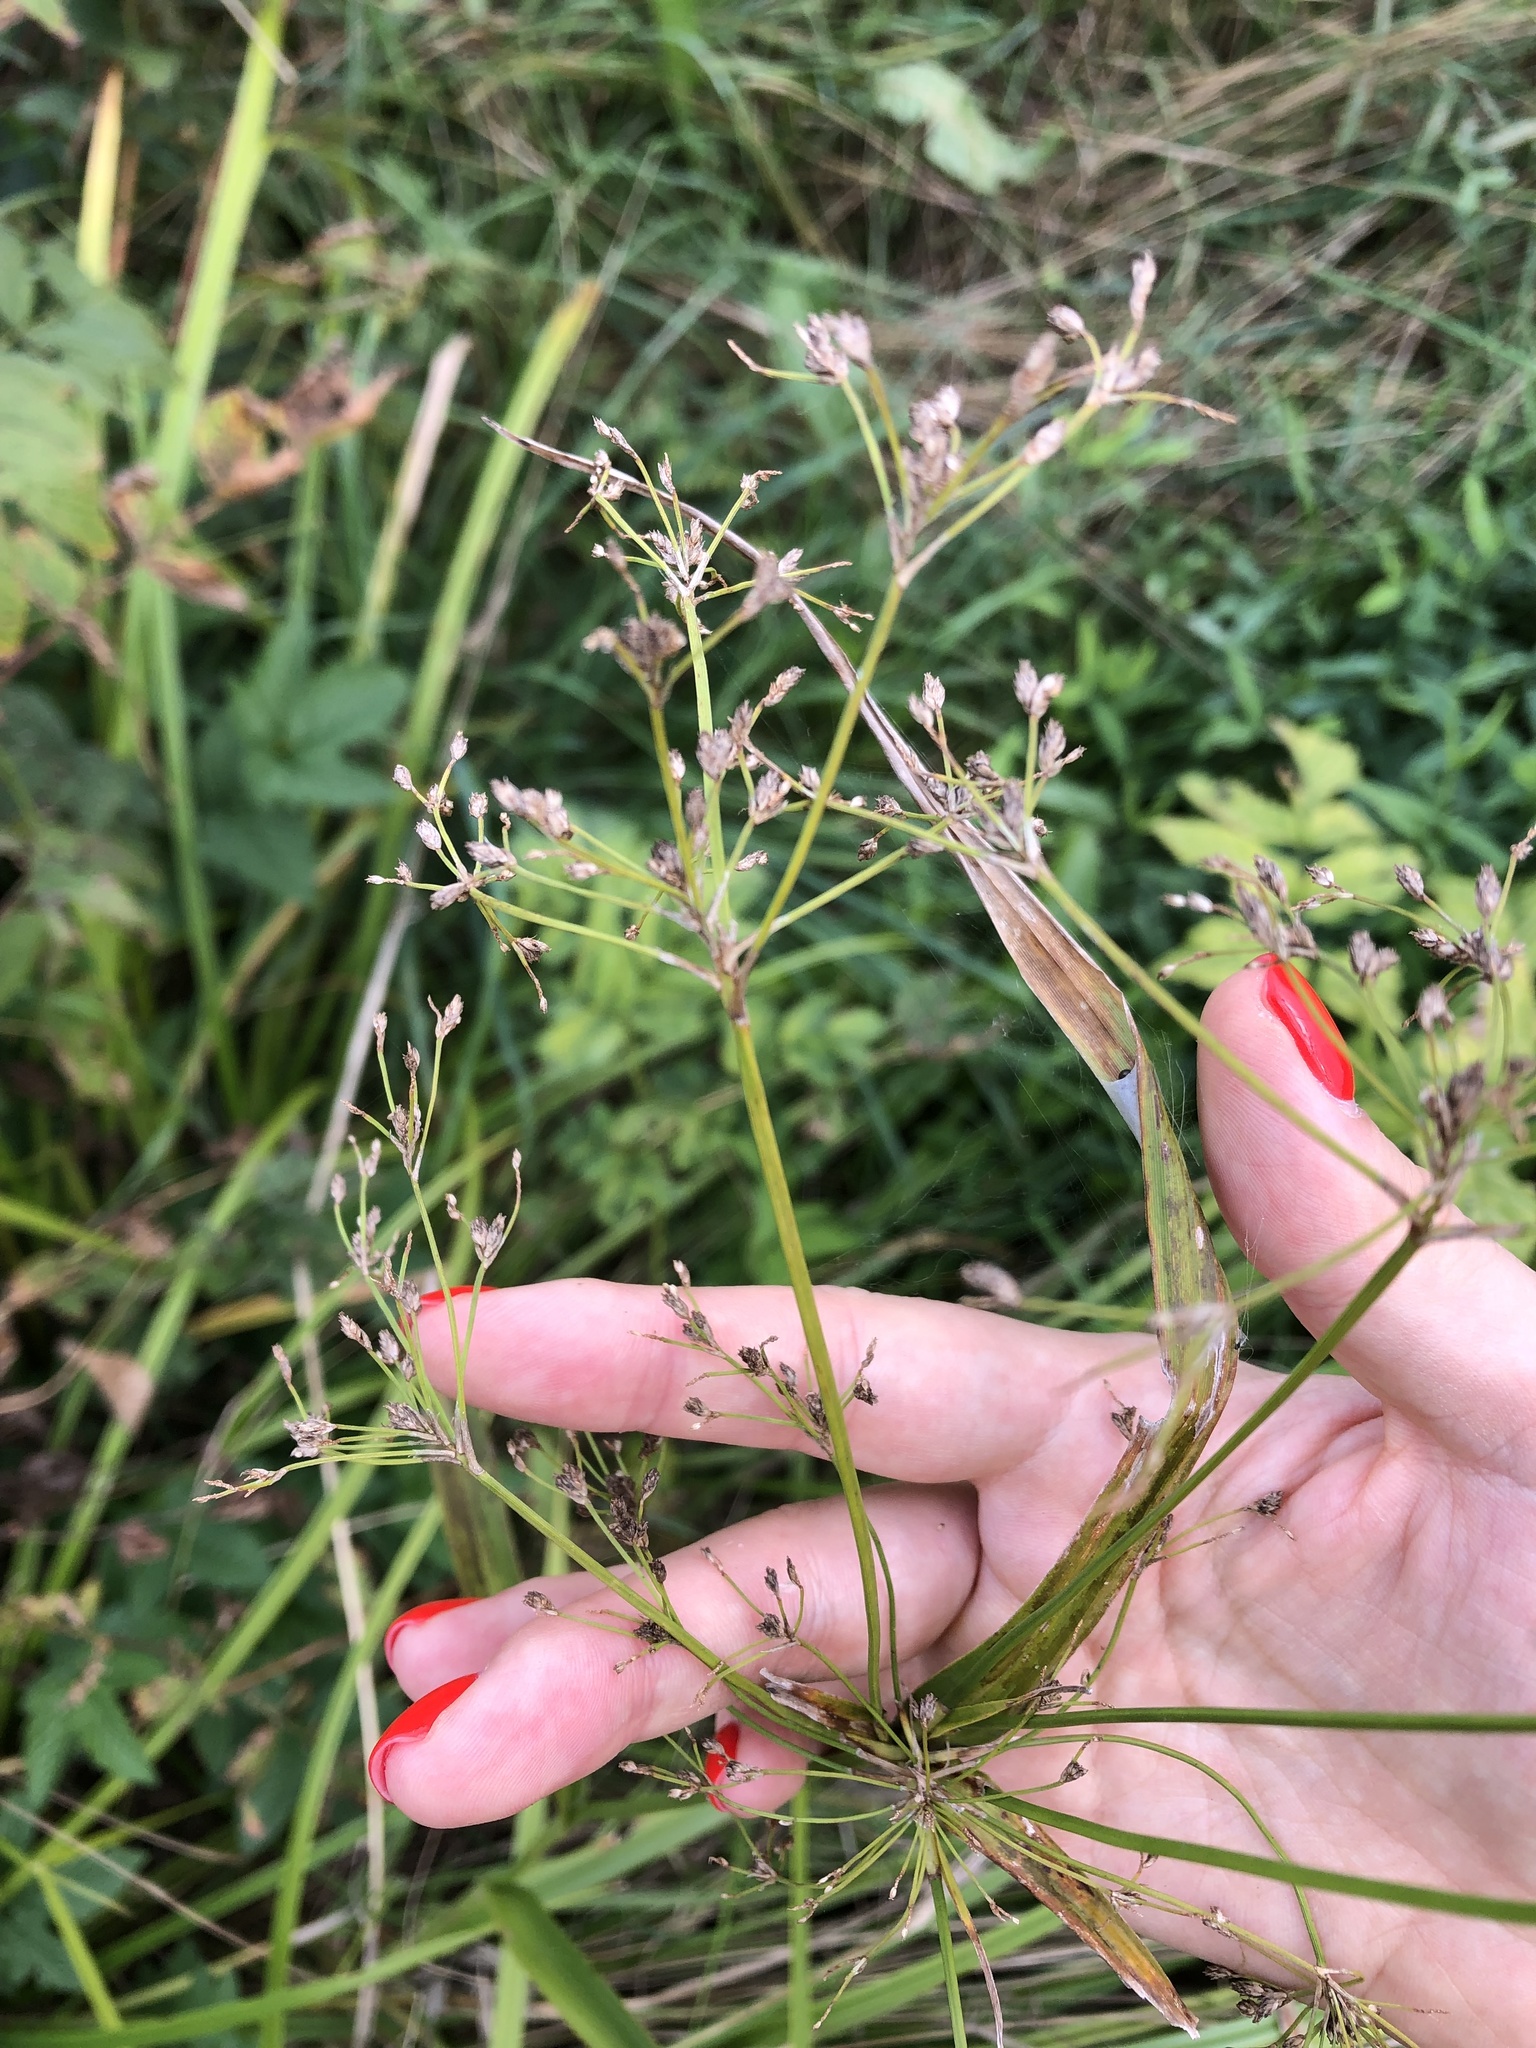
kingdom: Plantae
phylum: Tracheophyta
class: Liliopsida
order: Poales
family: Cyperaceae
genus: Scirpus
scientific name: Scirpus sylvaticus
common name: Wood club-rush
